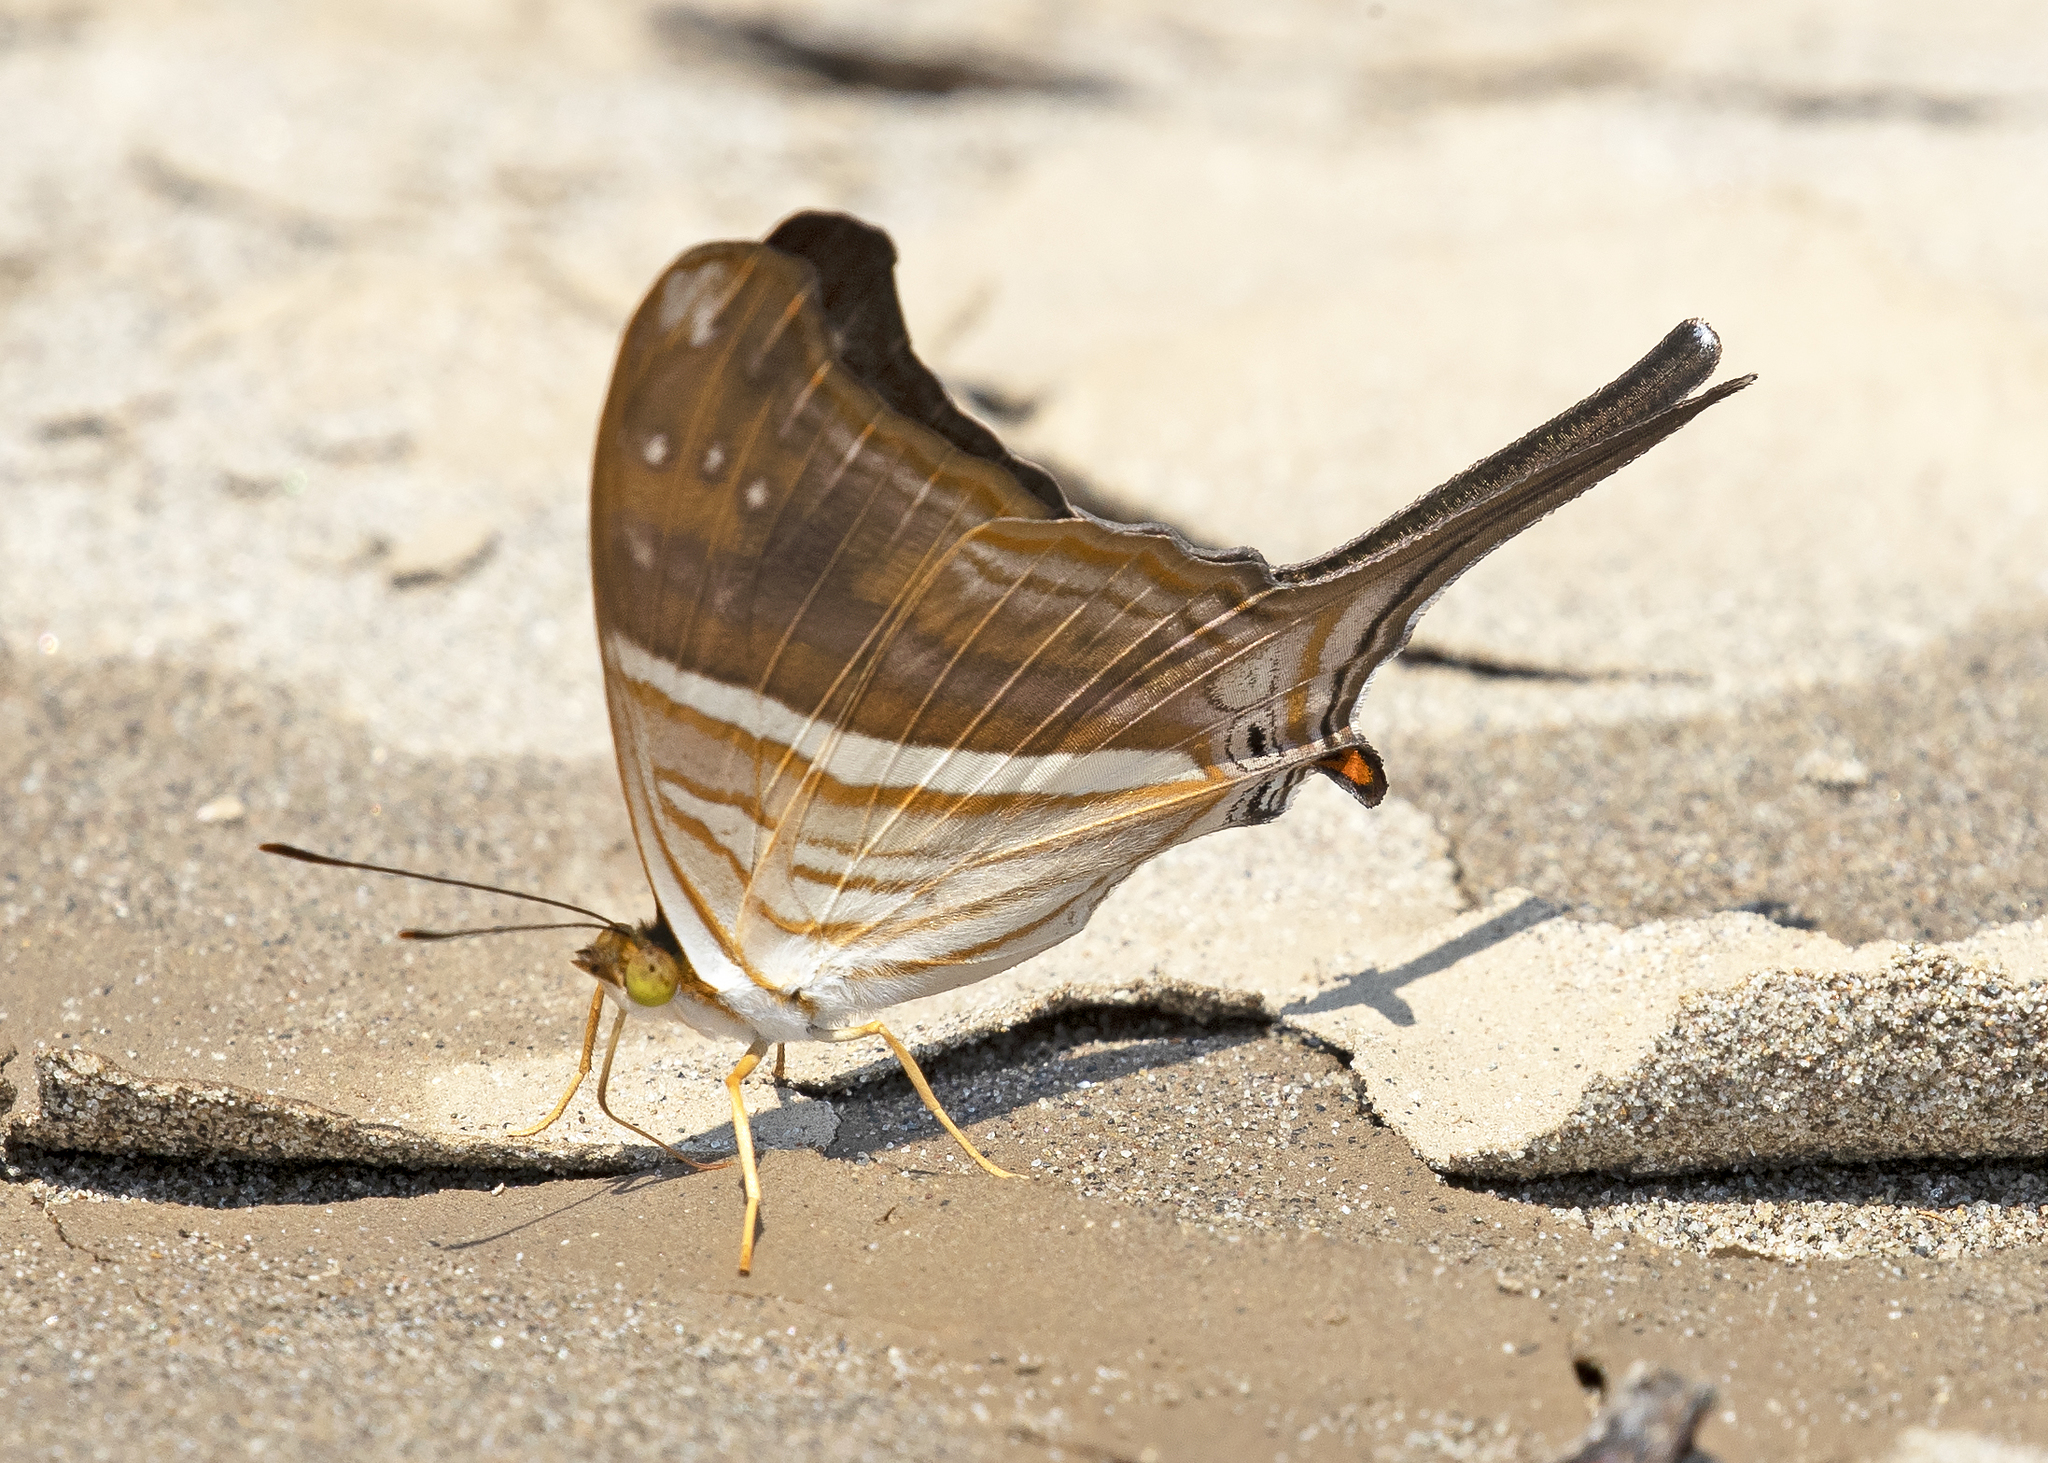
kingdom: Animalia
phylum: Arthropoda
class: Insecta
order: Lepidoptera
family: Nymphalidae
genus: Marpesia
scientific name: Marpesia chiron
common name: Many-banded daggerwing
